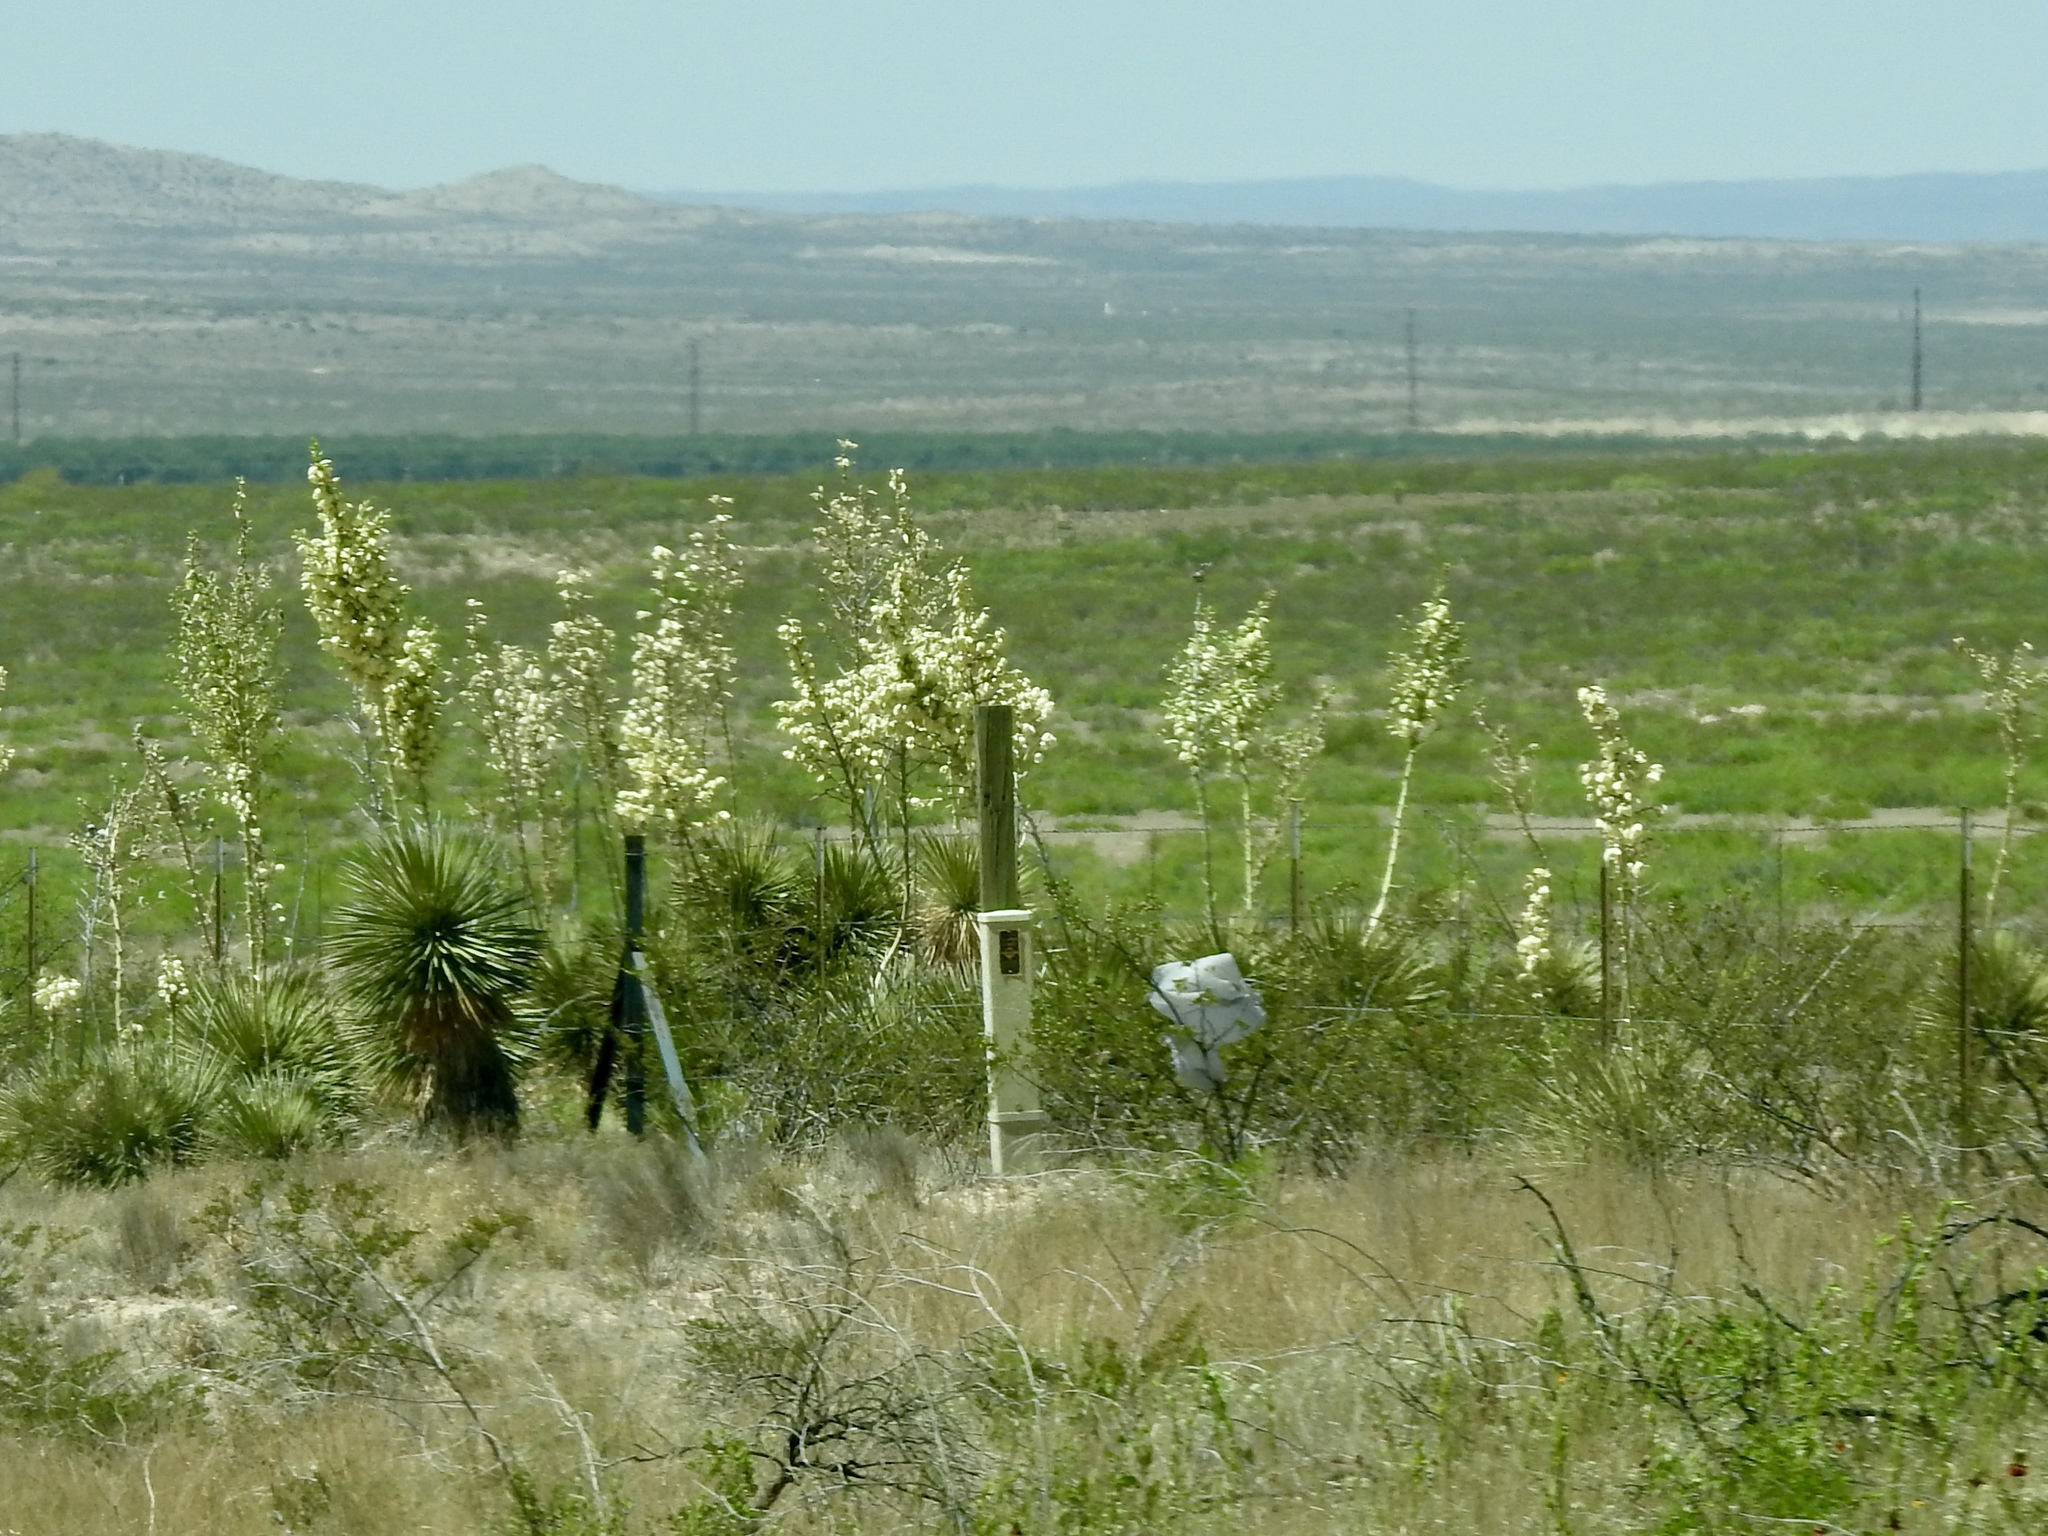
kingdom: Plantae
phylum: Tracheophyta
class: Liliopsida
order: Asparagales
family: Asparagaceae
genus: Yucca
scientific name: Yucca elata
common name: Palmella
